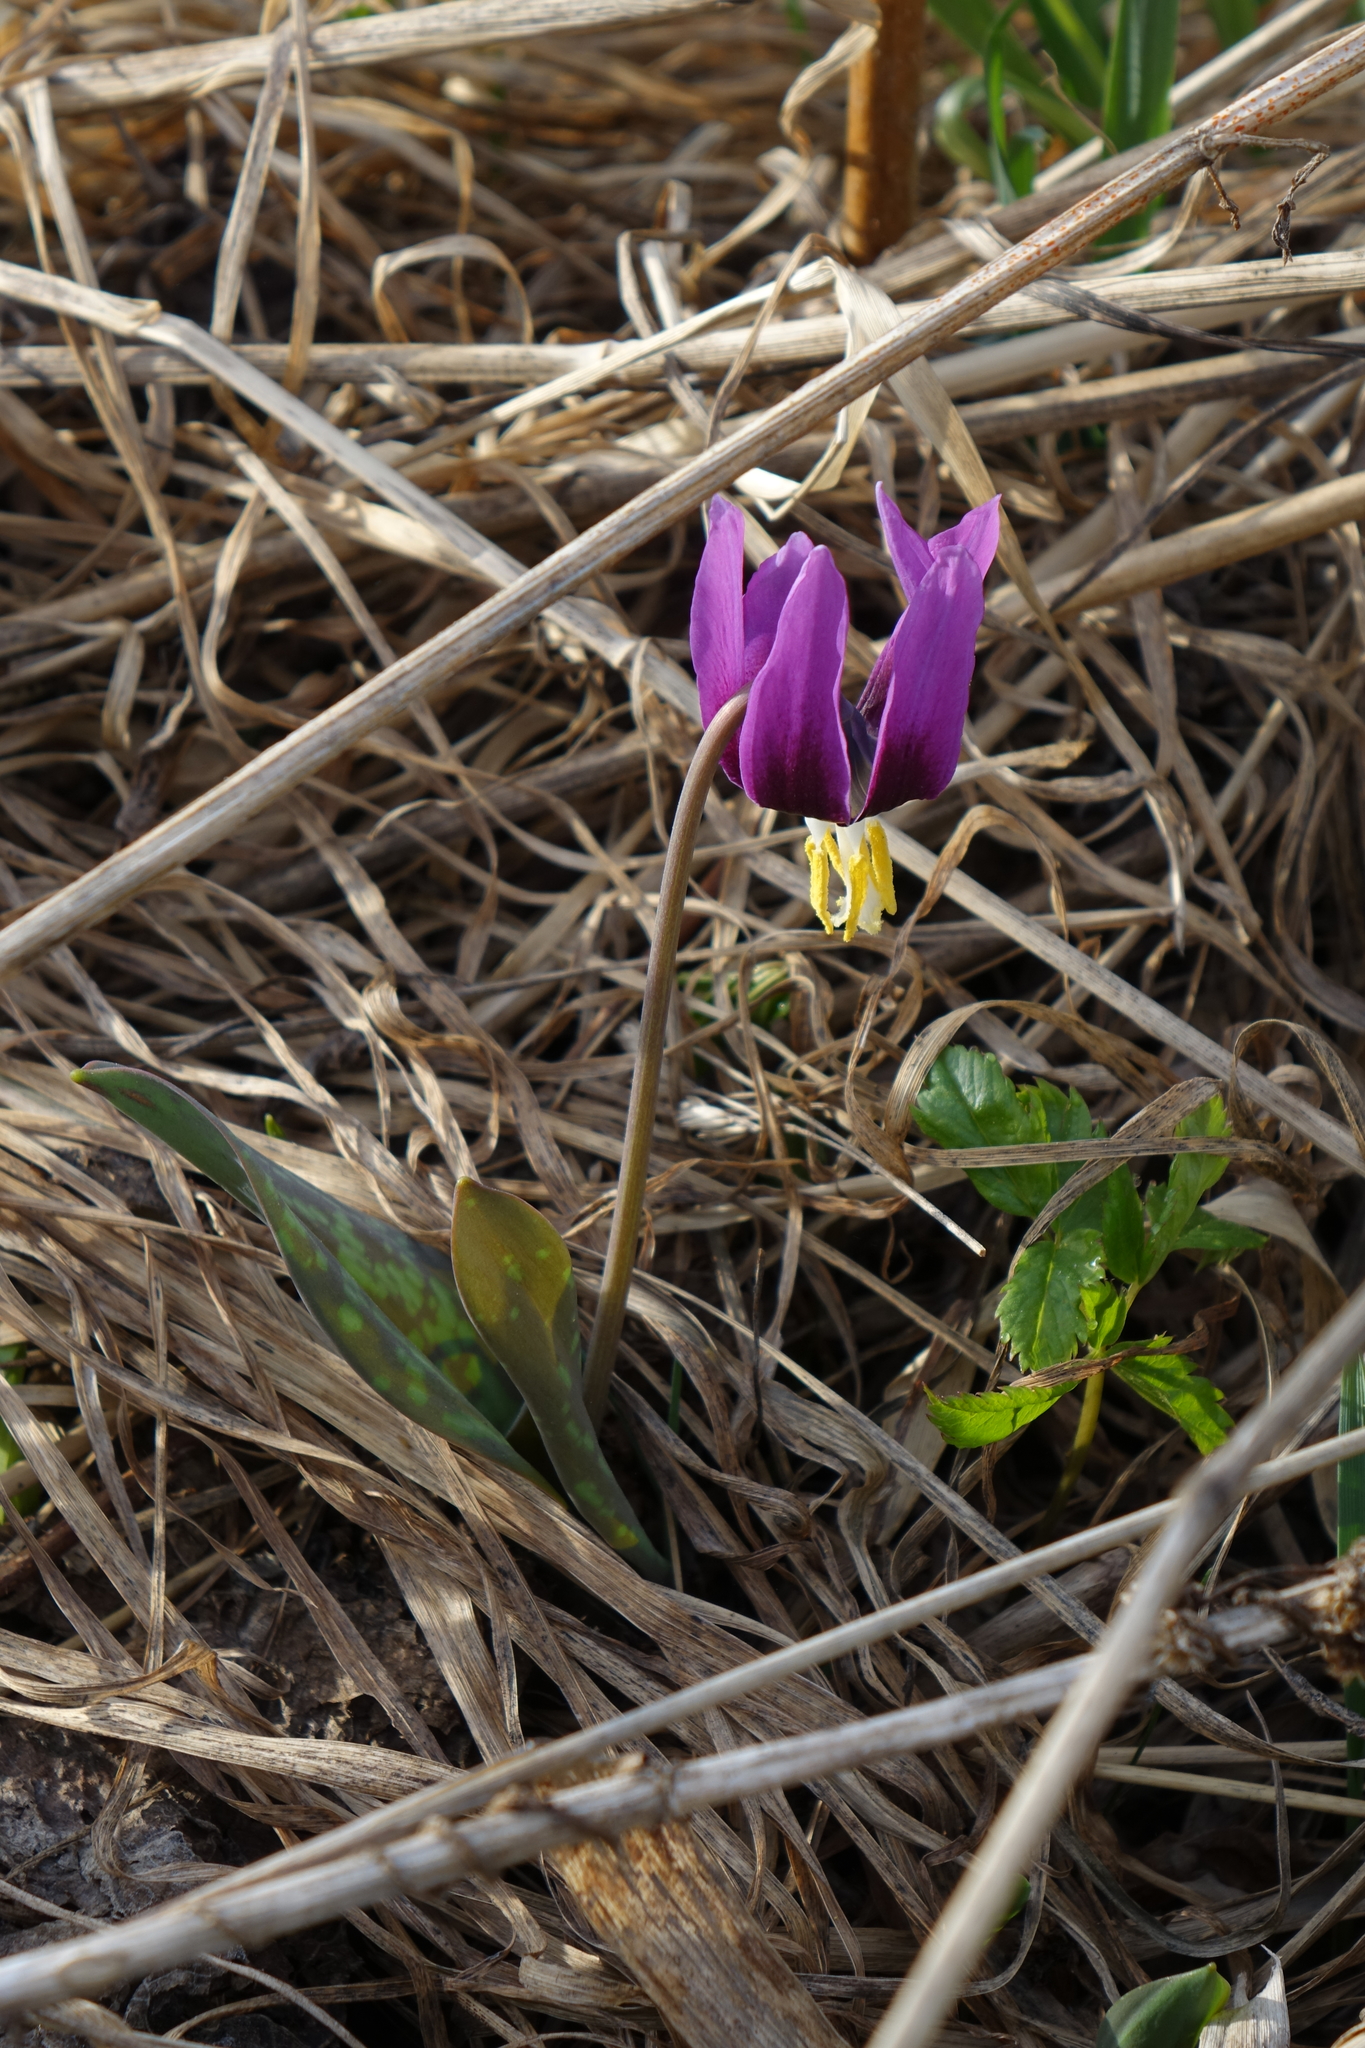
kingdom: Plantae
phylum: Tracheophyta
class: Liliopsida
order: Liliales
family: Liliaceae
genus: Erythronium
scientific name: Erythronium sibiricum
